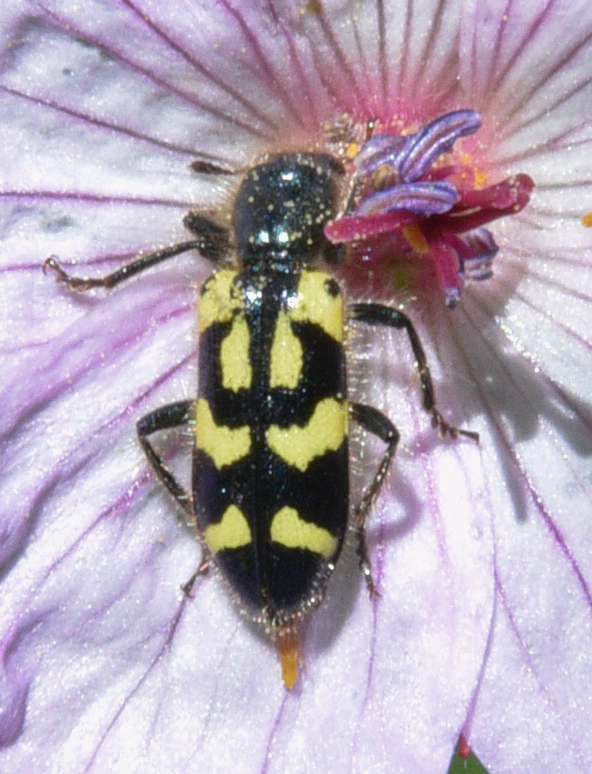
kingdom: Animalia
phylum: Arthropoda
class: Insecta
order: Coleoptera
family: Cleridae
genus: Trichodes
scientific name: Trichodes ornatus
